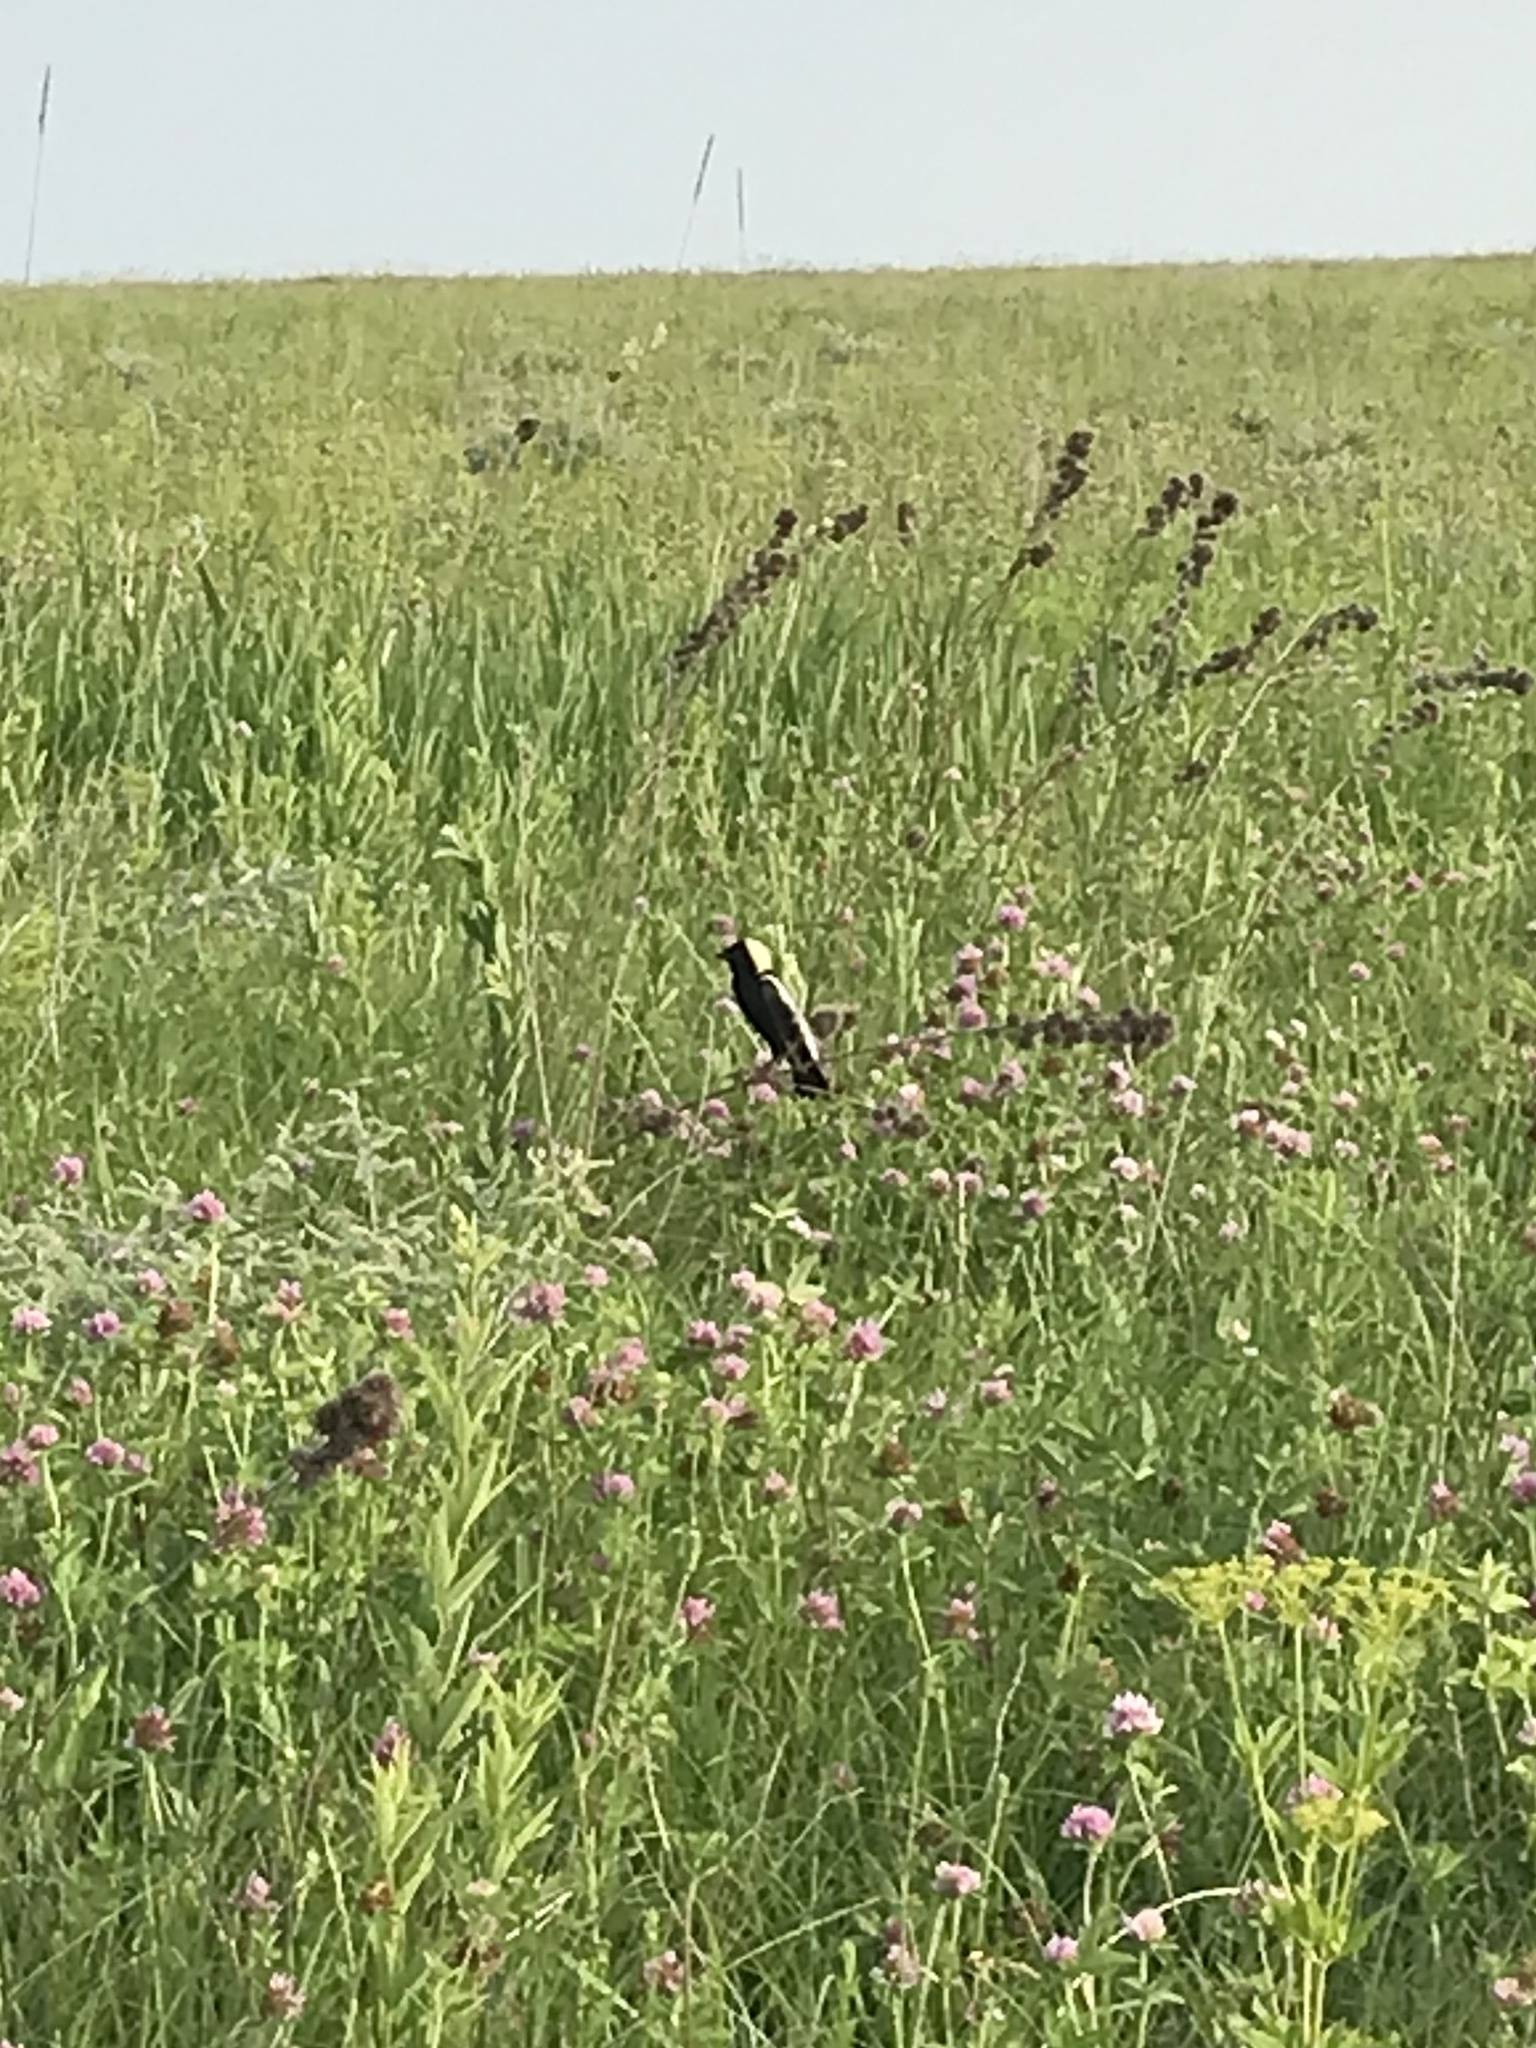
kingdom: Animalia
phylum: Chordata
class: Aves
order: Passeriformes
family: Icteridae
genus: Dolichonyx
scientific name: Dolichonyx oryzivorus
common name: Bobolink
